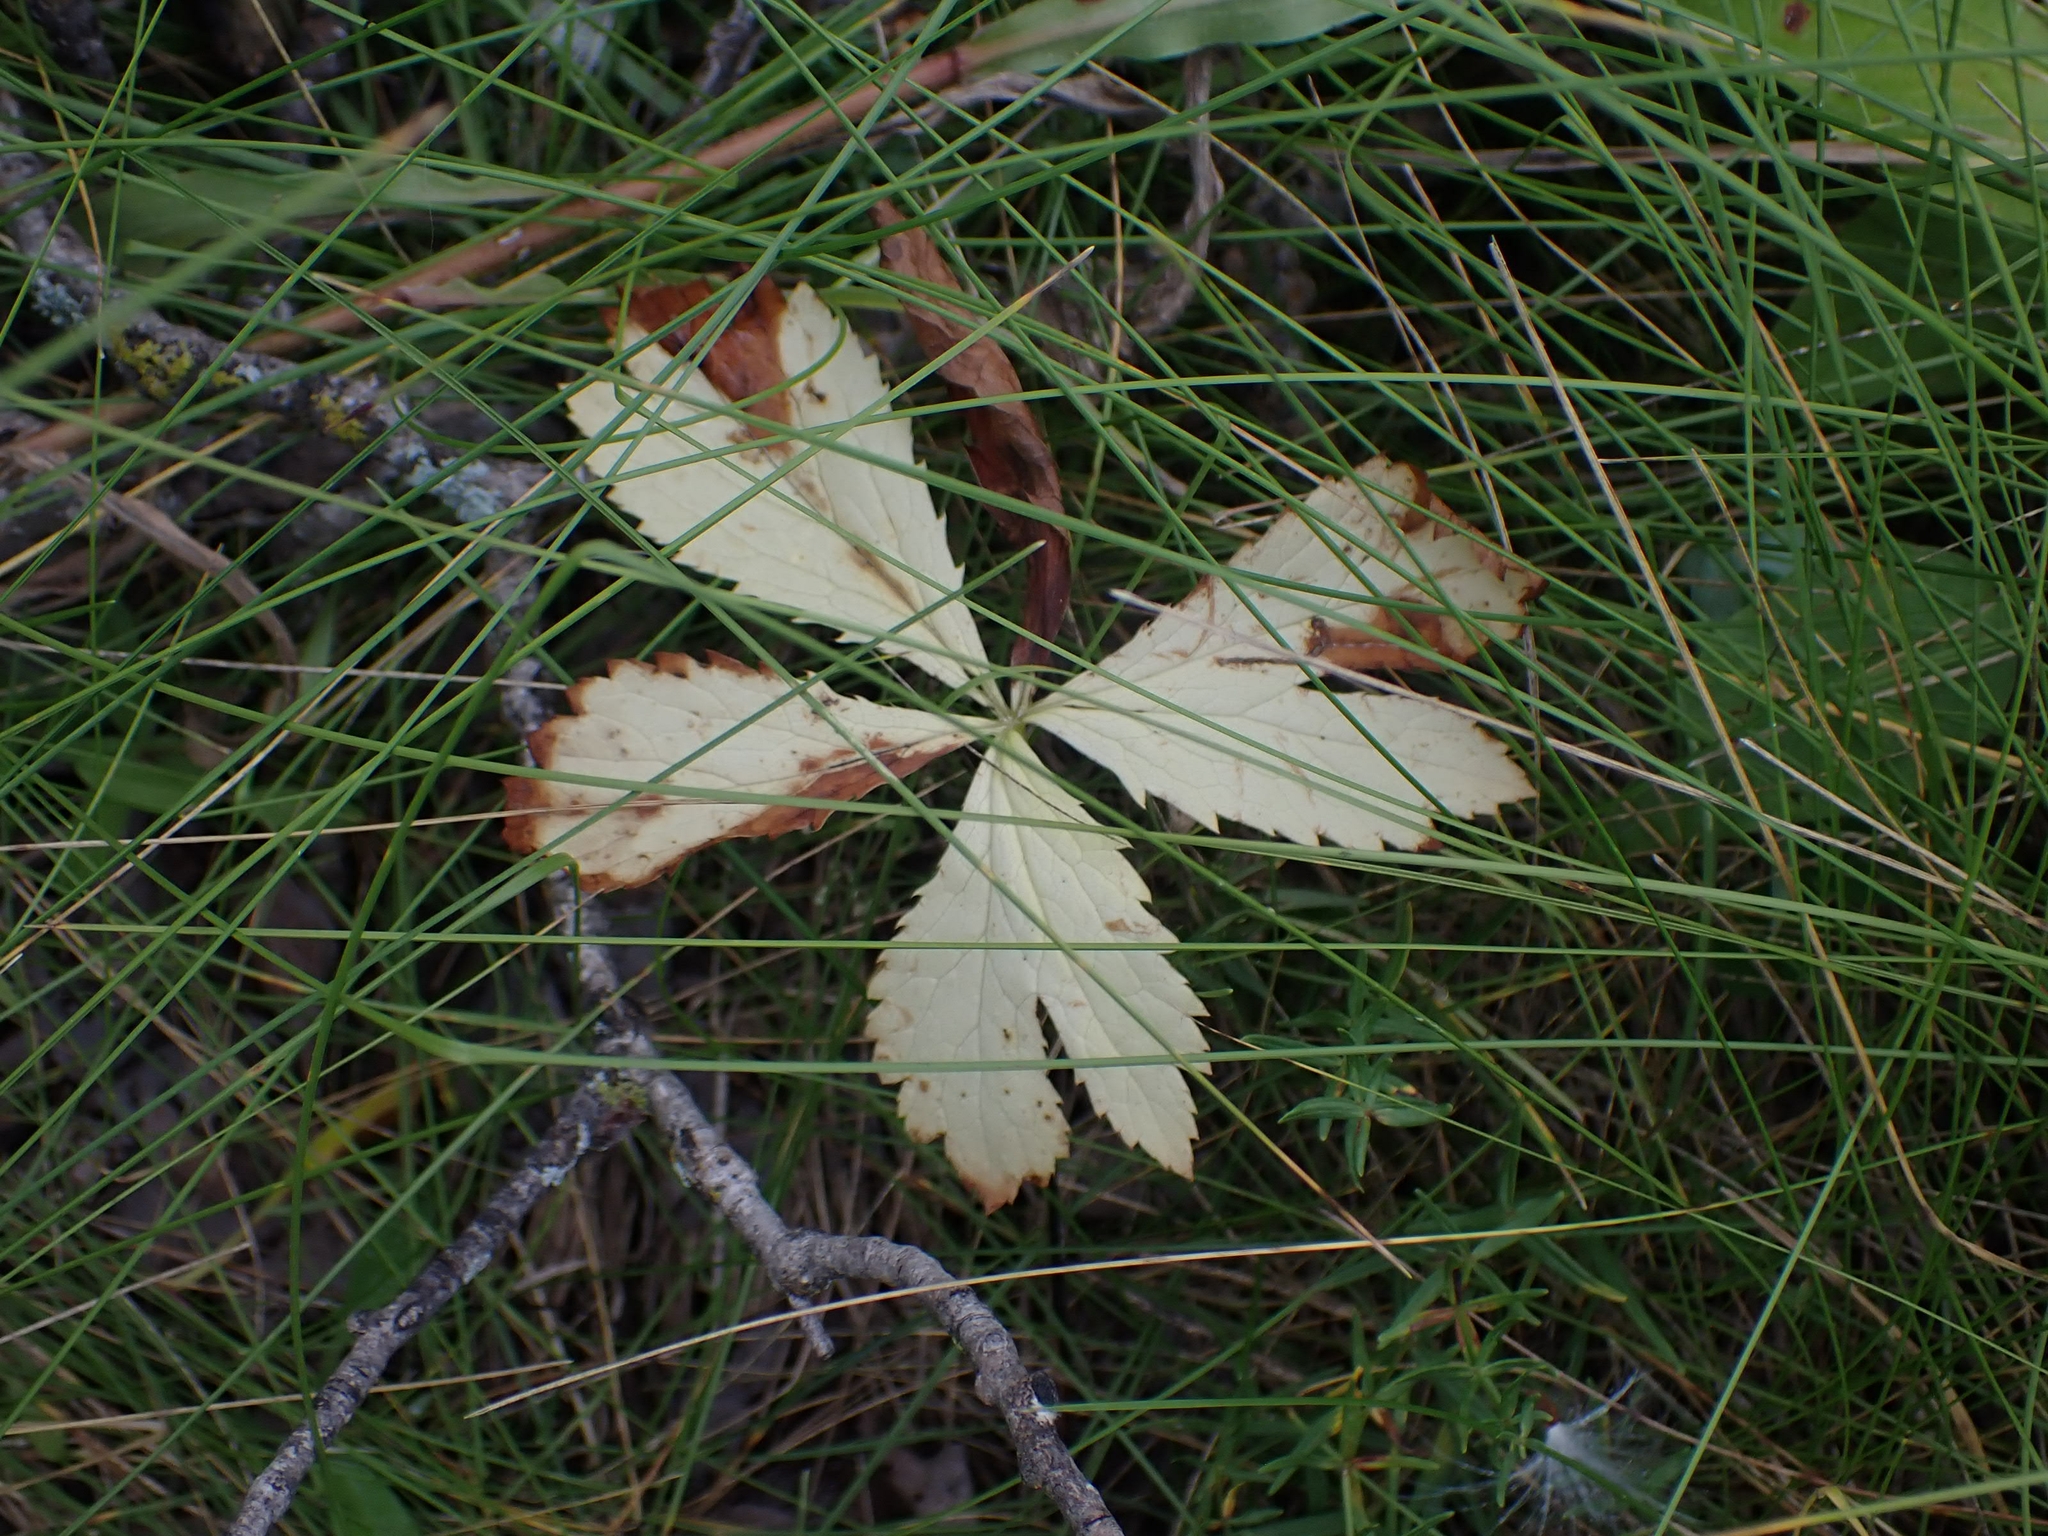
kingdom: Plantae
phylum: Tracheophyta
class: Magnoliopsida
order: Apiales
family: Apiaceae
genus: Sanicula
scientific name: Sanicula marilandica
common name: Black snakeroot
